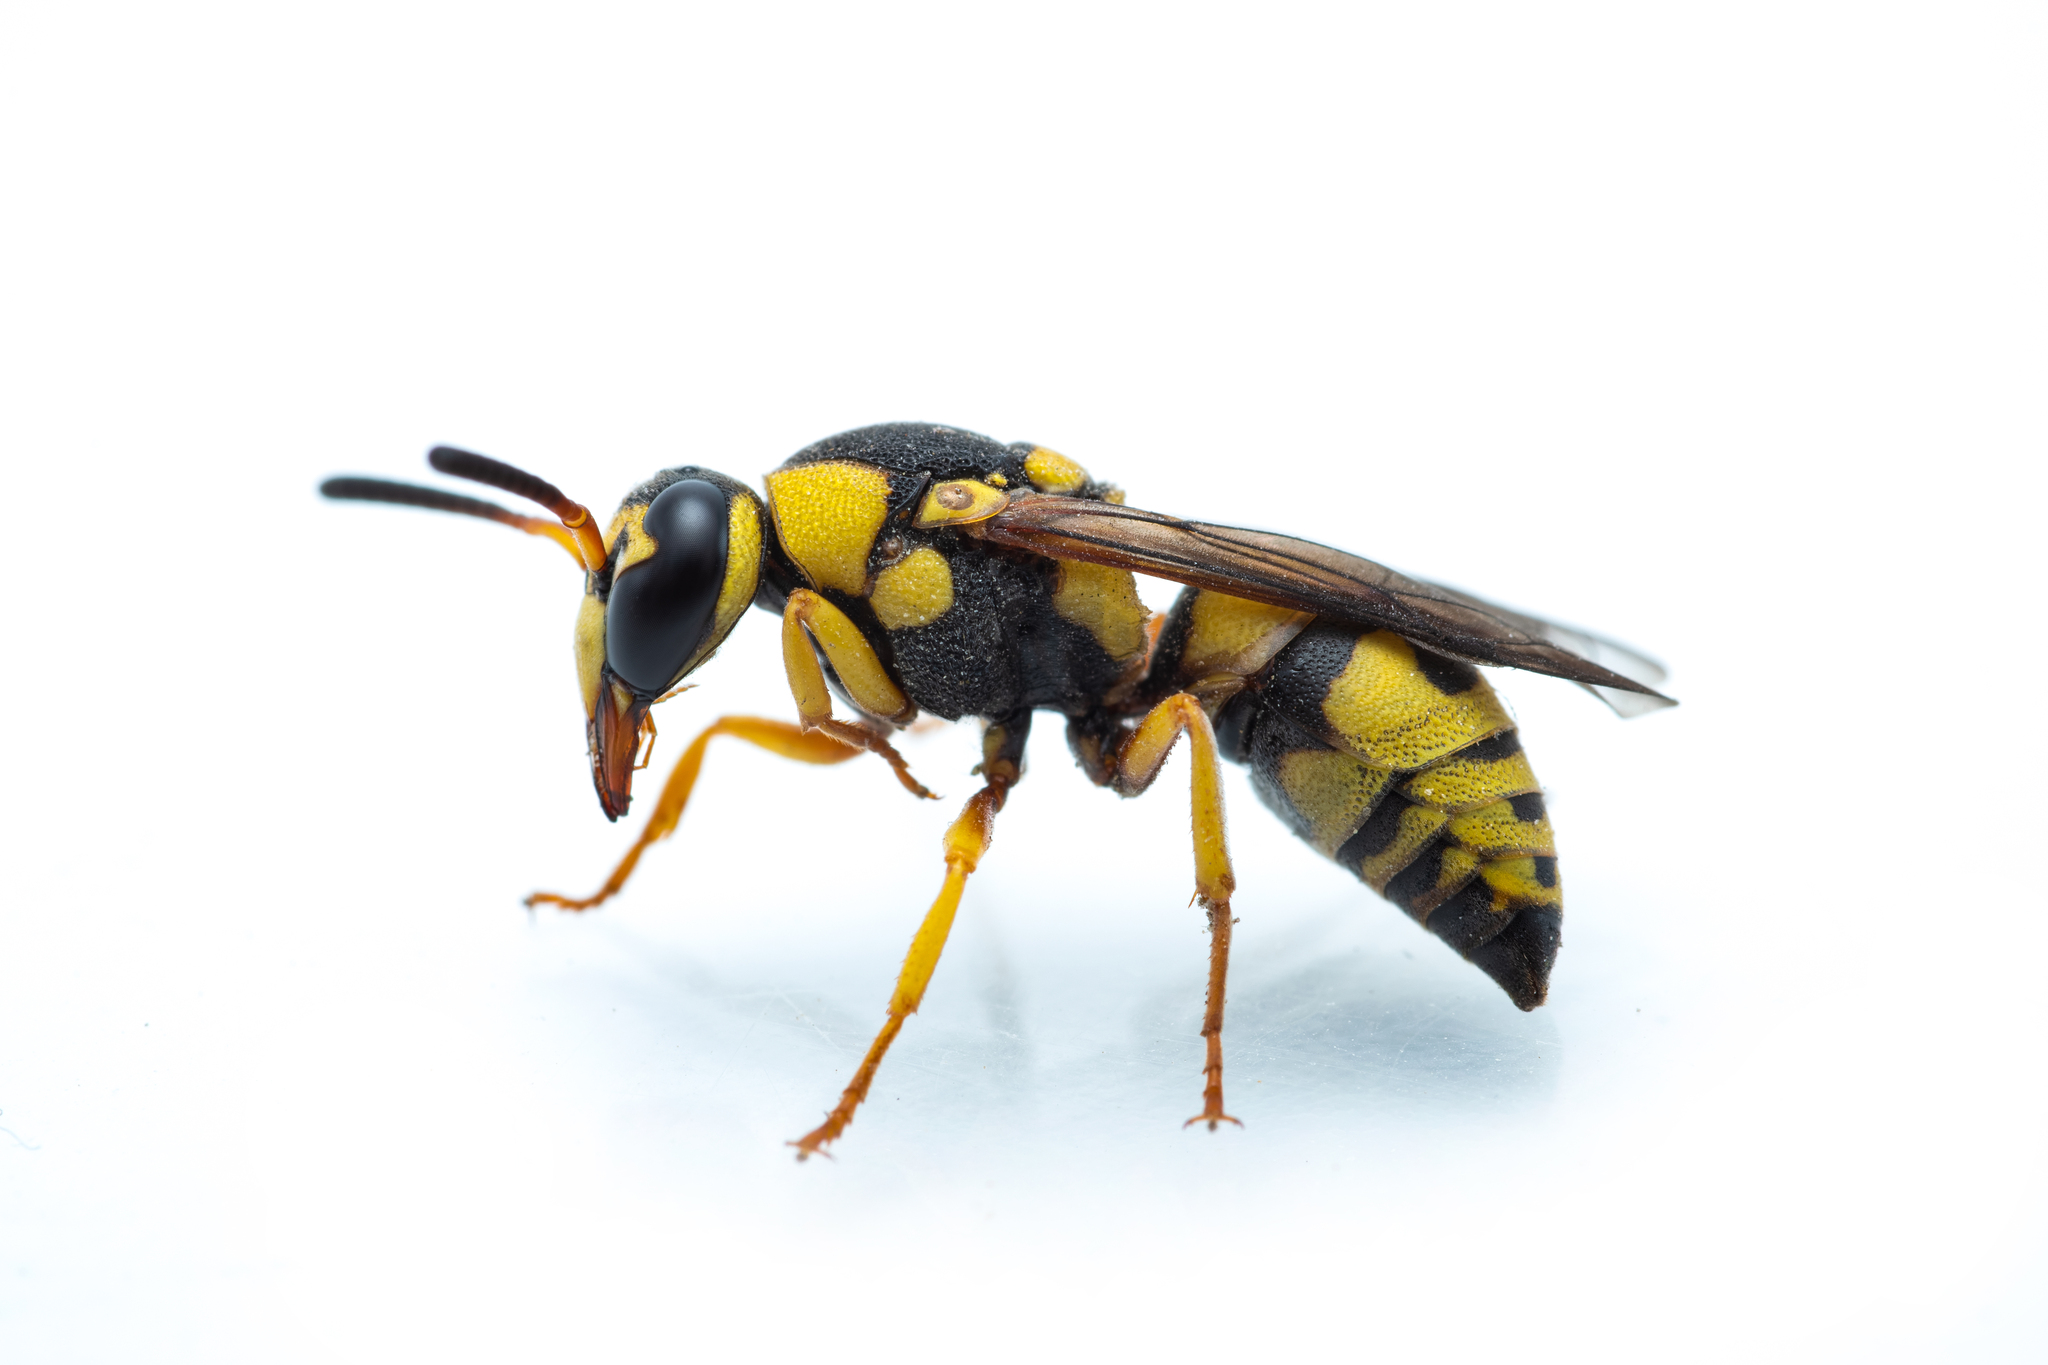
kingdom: Animalia
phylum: Arthropoda
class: Insecta
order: Hymenoptera
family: Eumenidae
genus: Euodynerus
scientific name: Euodynerus variegatus
